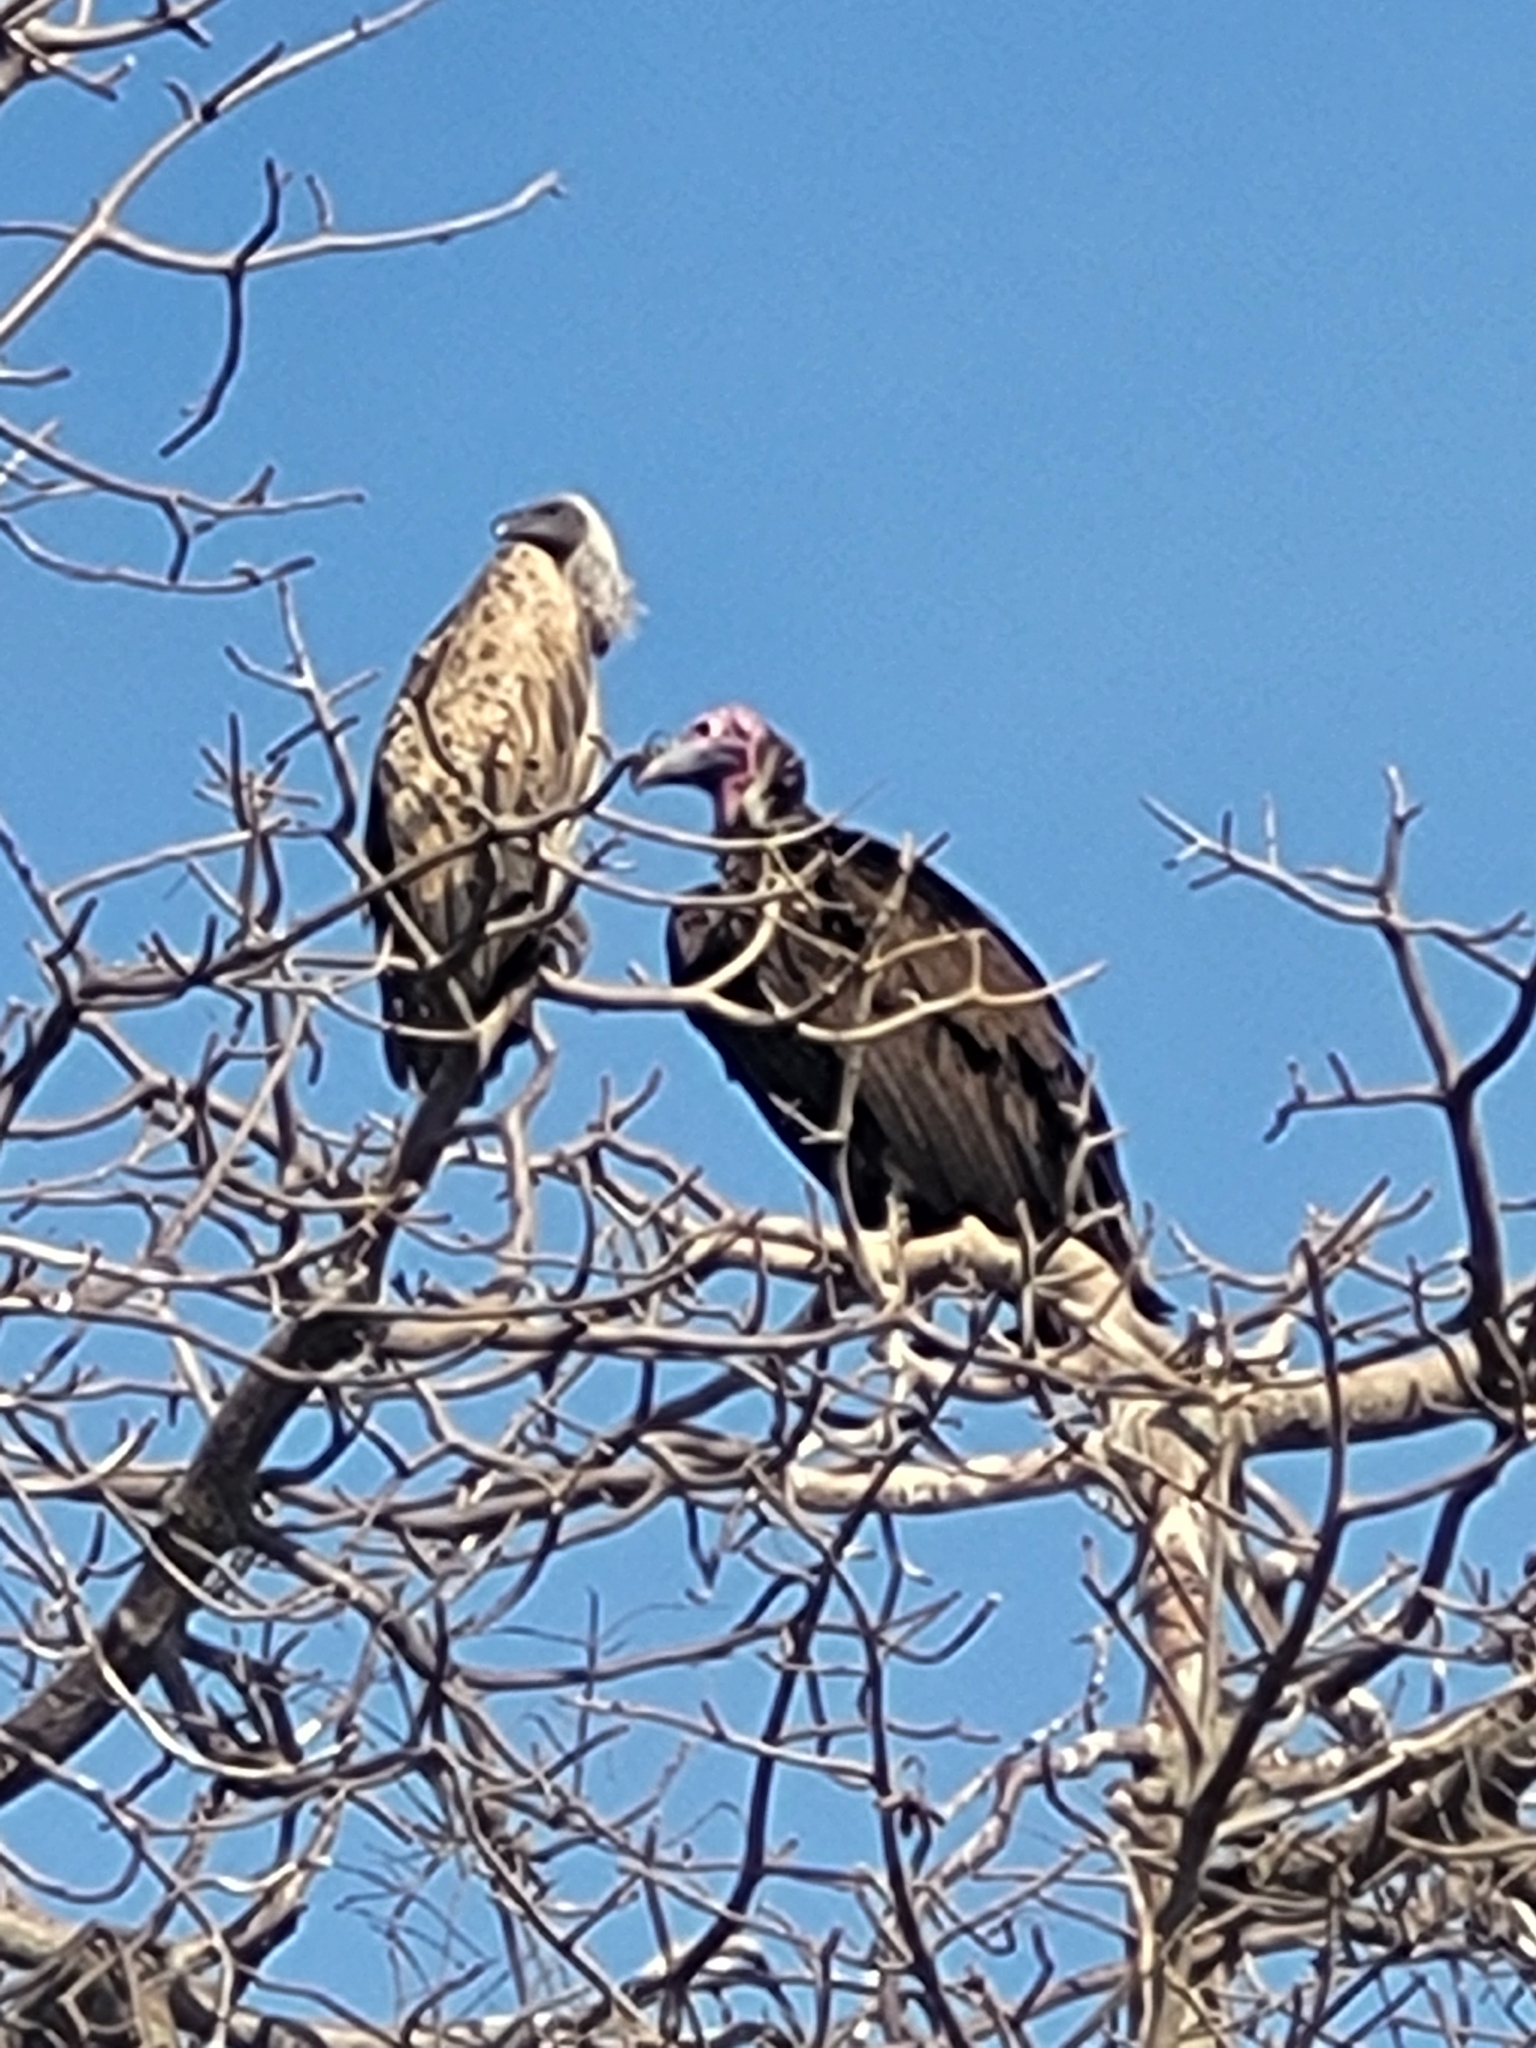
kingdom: Animalia
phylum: Chordata
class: Aves
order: Accipitriformes
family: Accipitridae
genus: Torgos
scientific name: Torgos tracheliotos
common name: Lappet-faced vulture
